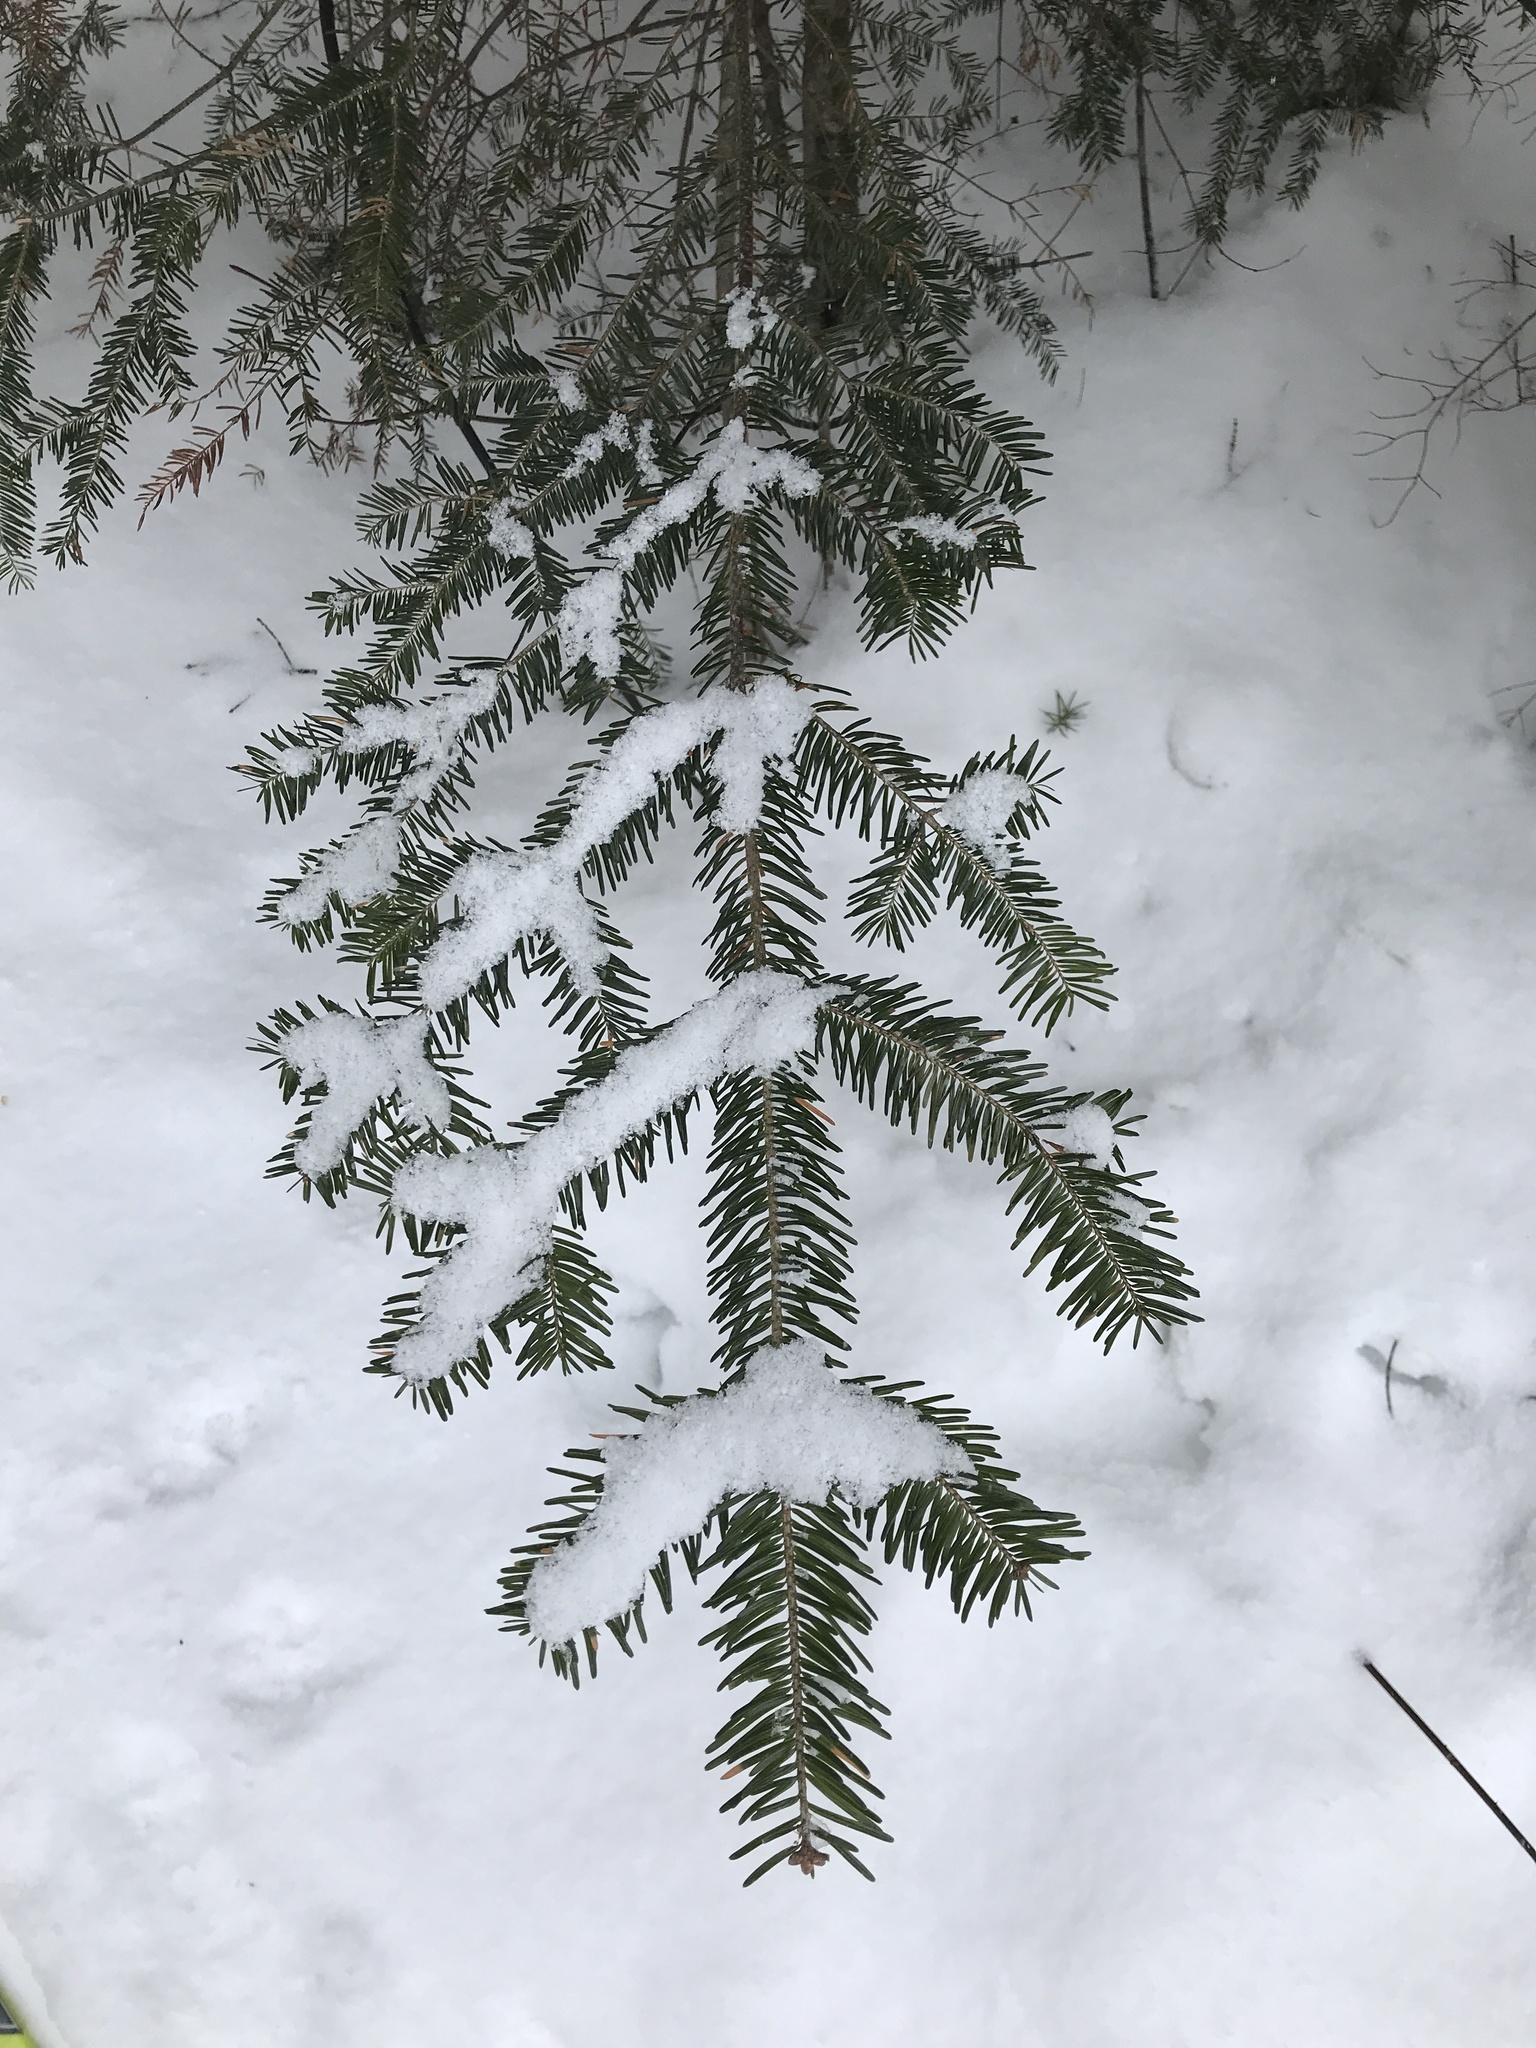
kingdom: Plantae
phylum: Tracheophyta
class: Pinopsida
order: Pinales
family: Pinaceae
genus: Abies
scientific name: Abies balsamea
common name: Balsam fir
